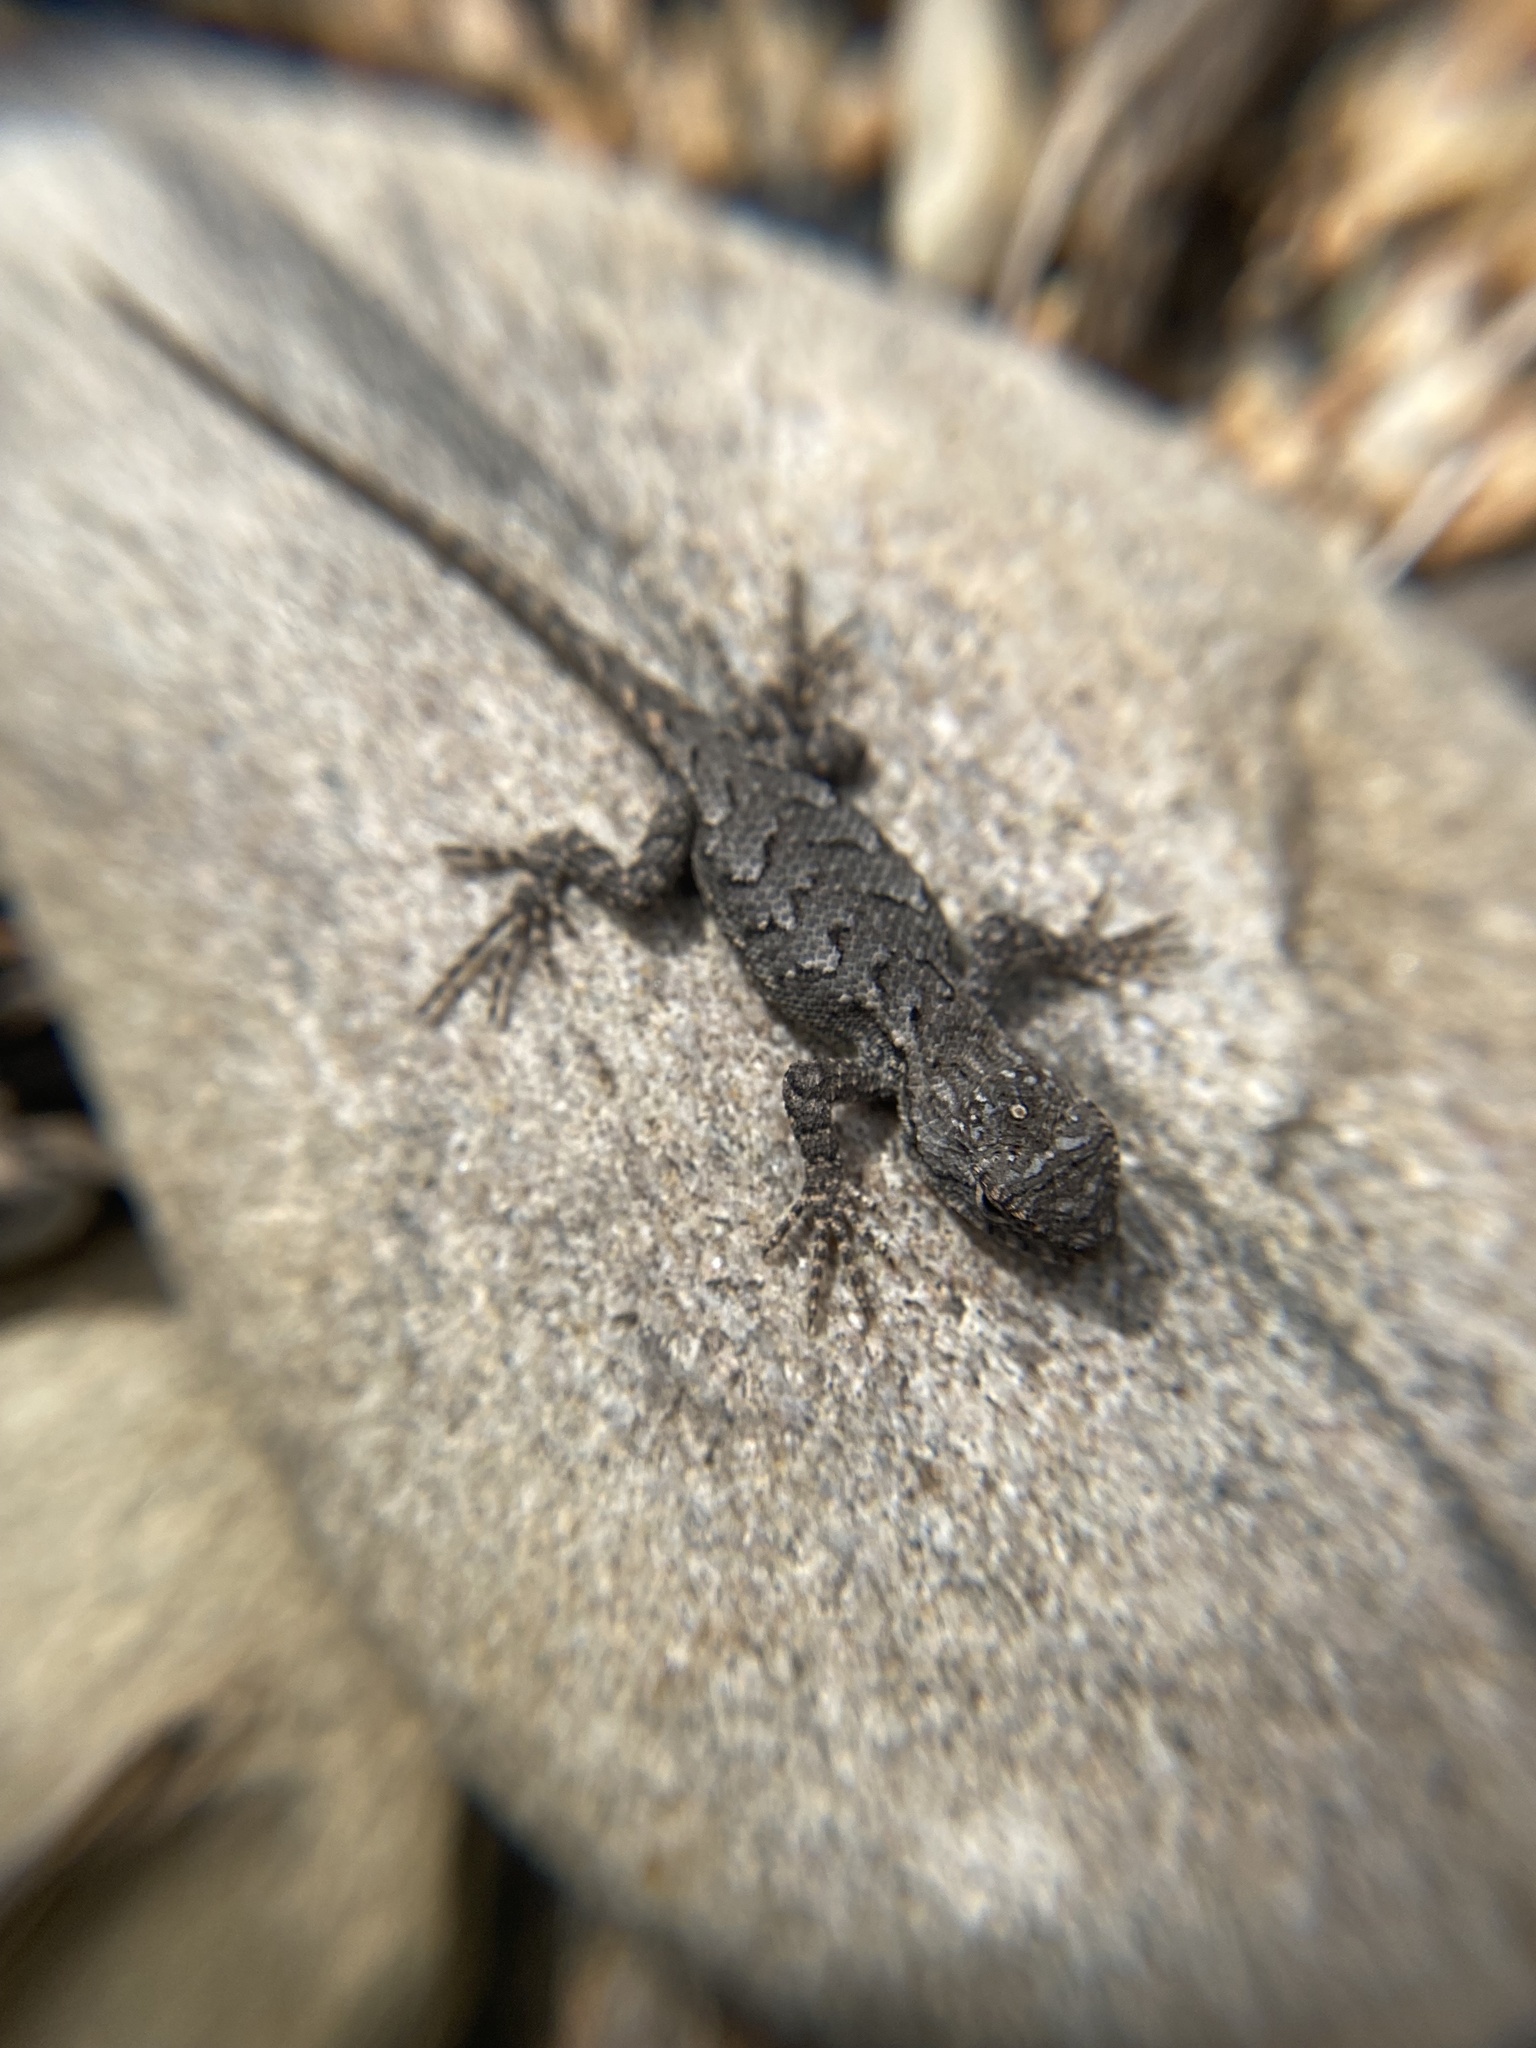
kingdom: Animalia
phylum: Chordata
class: Squamata
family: Phrynosomatidae
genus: Sceloporus
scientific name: Sceloporus undulatus
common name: Eastern fence lizard
